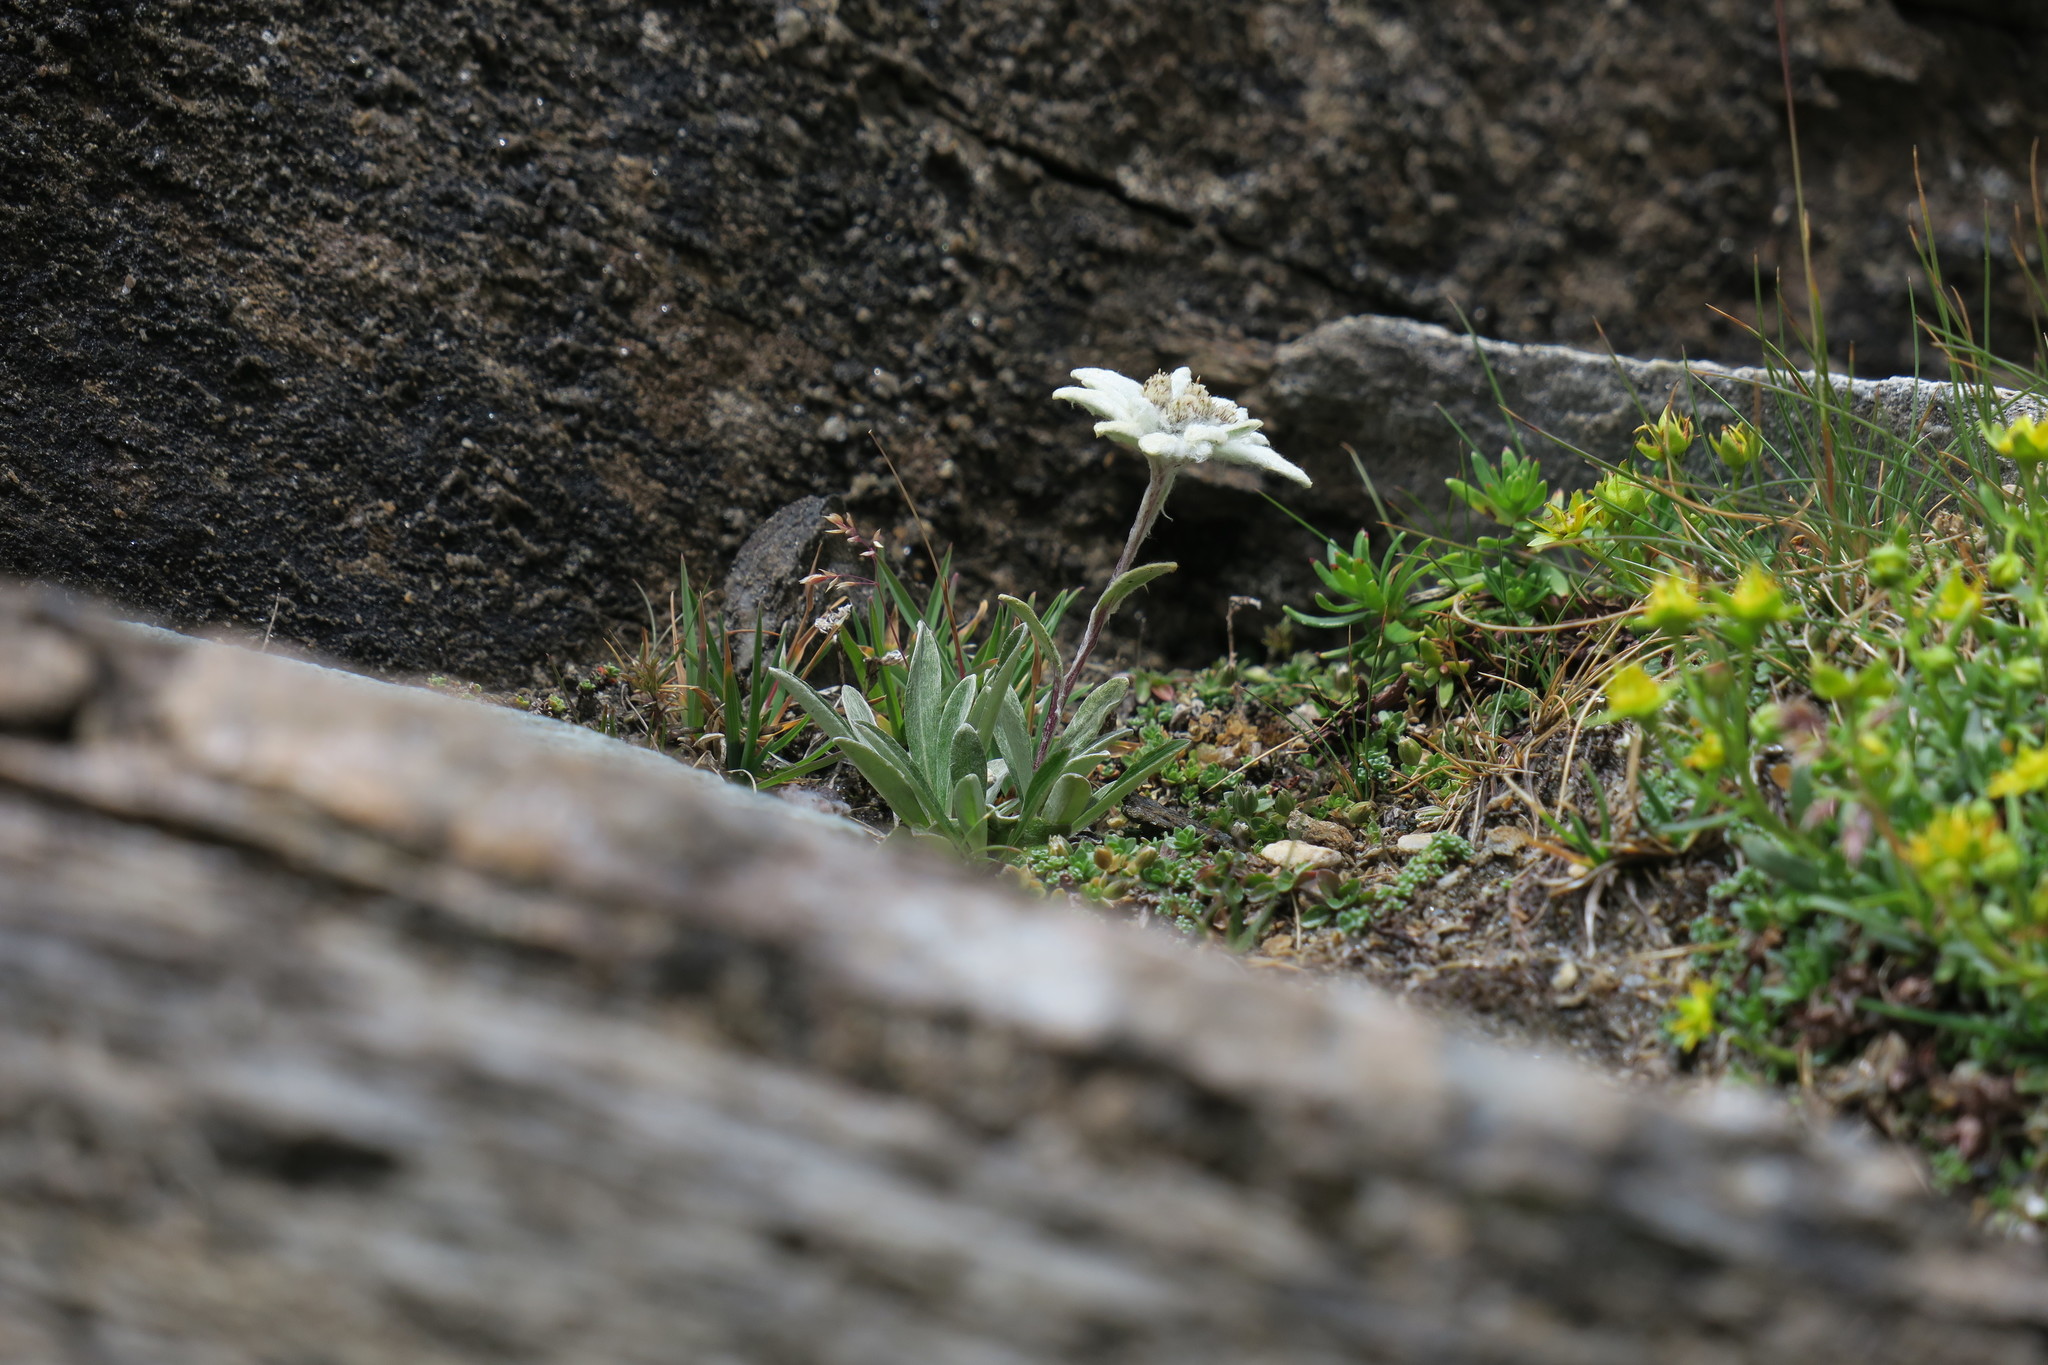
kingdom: Plantae
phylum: Tracheophyta
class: Magnoliopsida
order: Asterales
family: Asteraceae
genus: Leontopodium
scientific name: Leontopodium nivale
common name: Edelweiss
